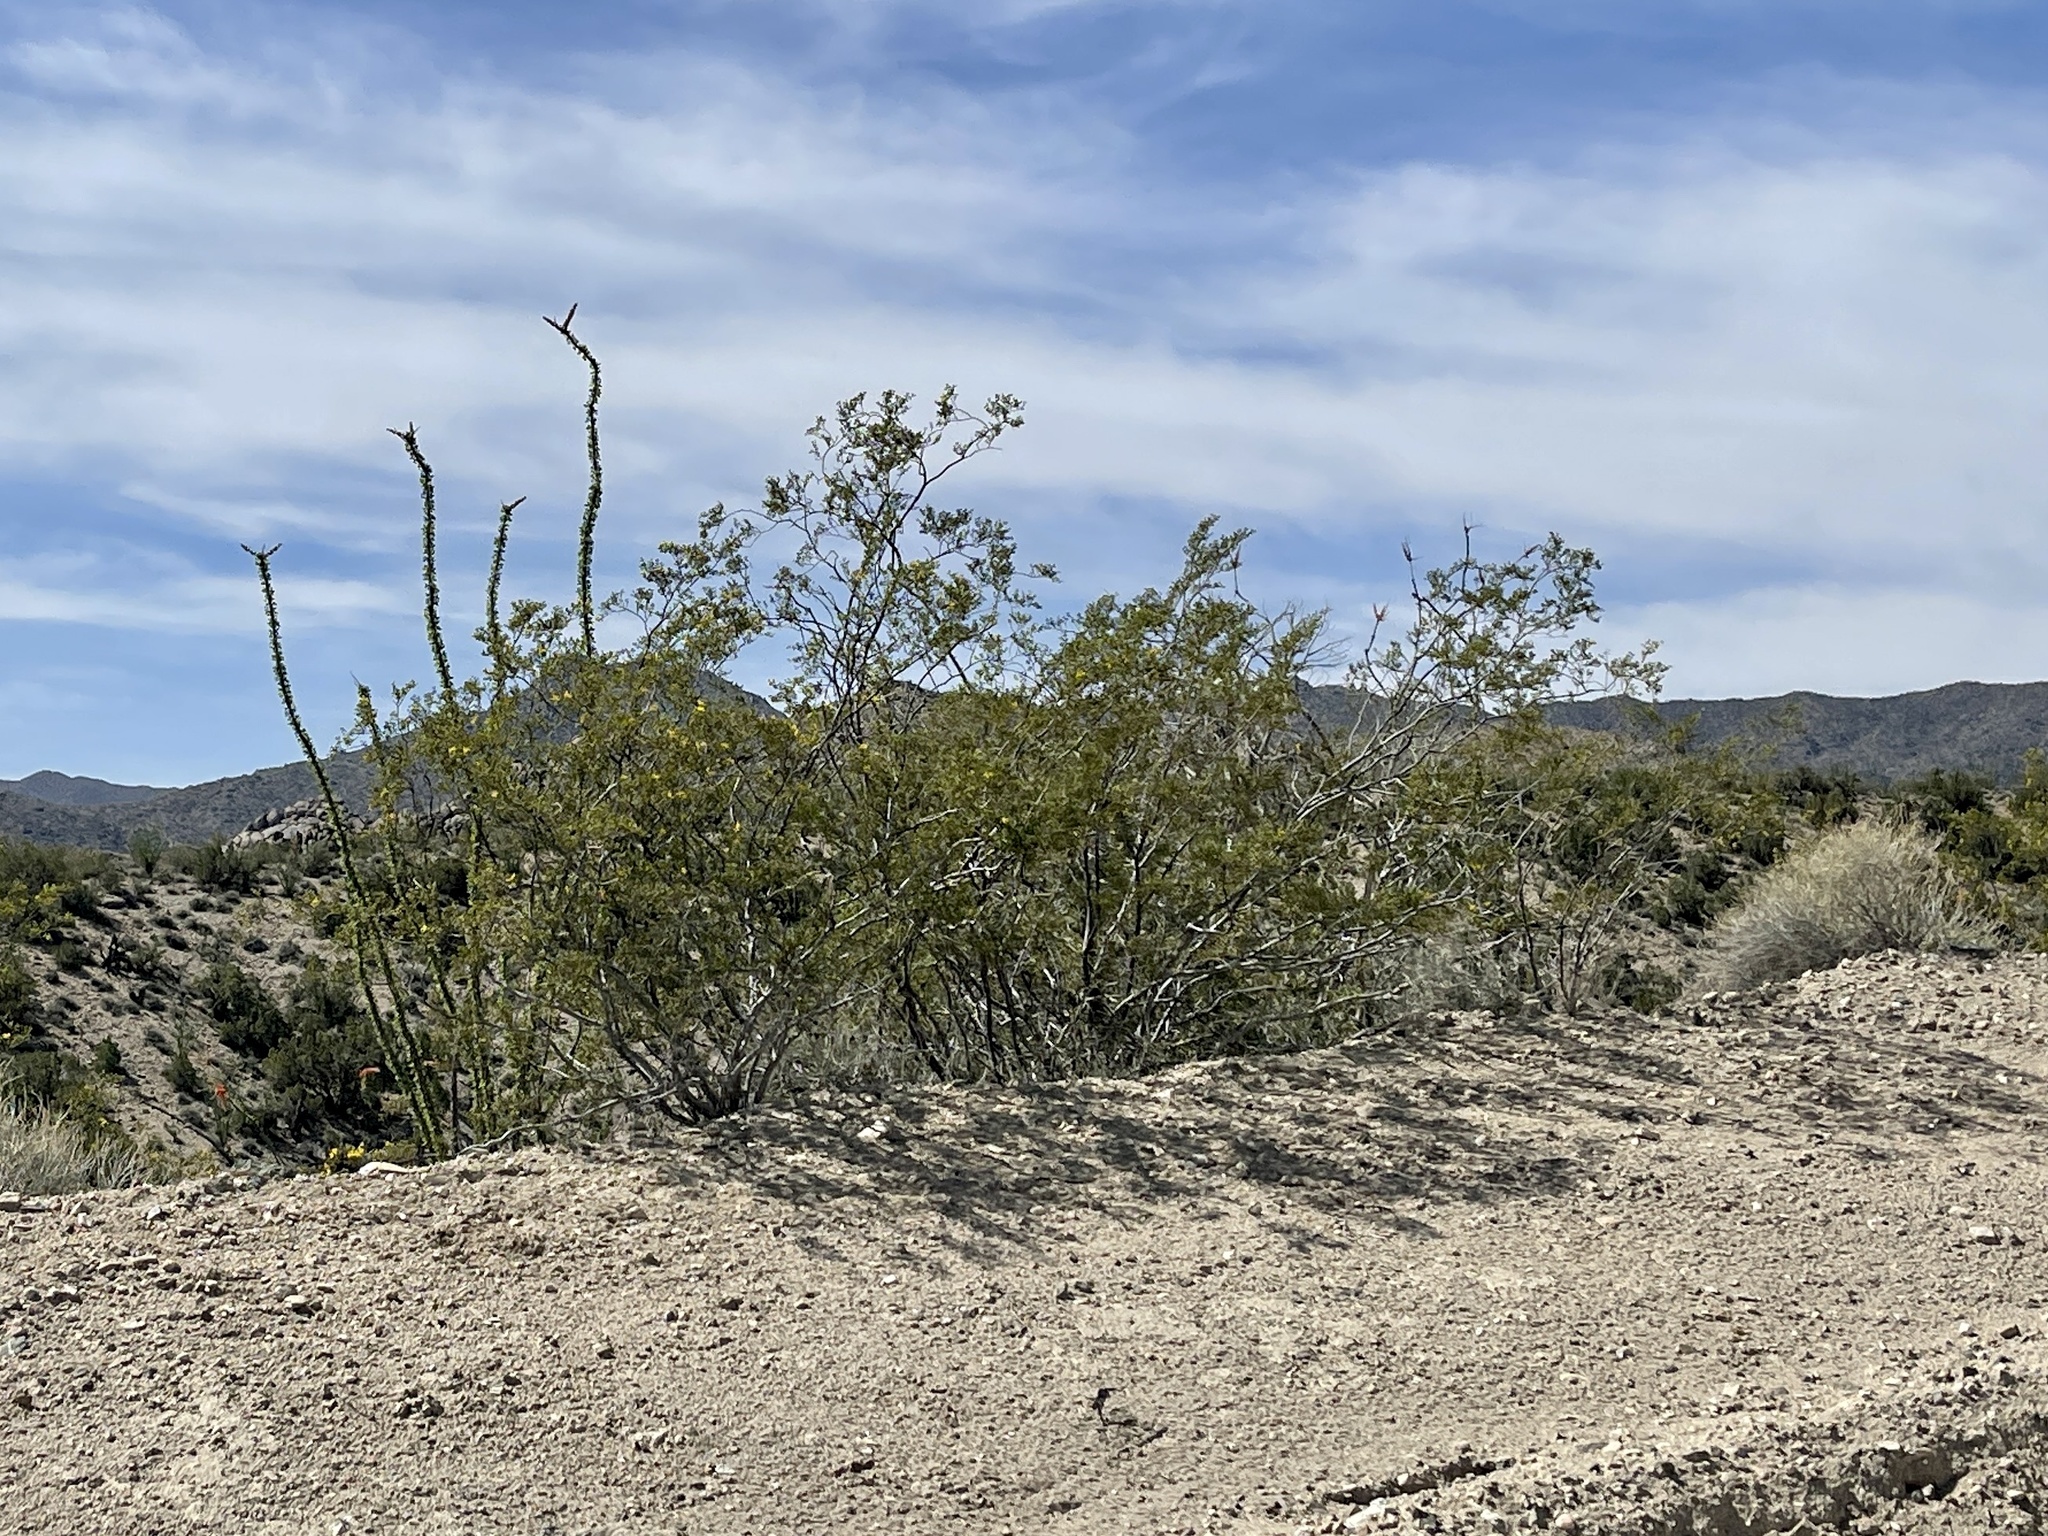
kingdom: Plantae
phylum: Tracheophyta
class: Magnoliopsida
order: Zygophyllales
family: Zygophyllaceae
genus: Larrea
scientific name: Larrea tridentata
